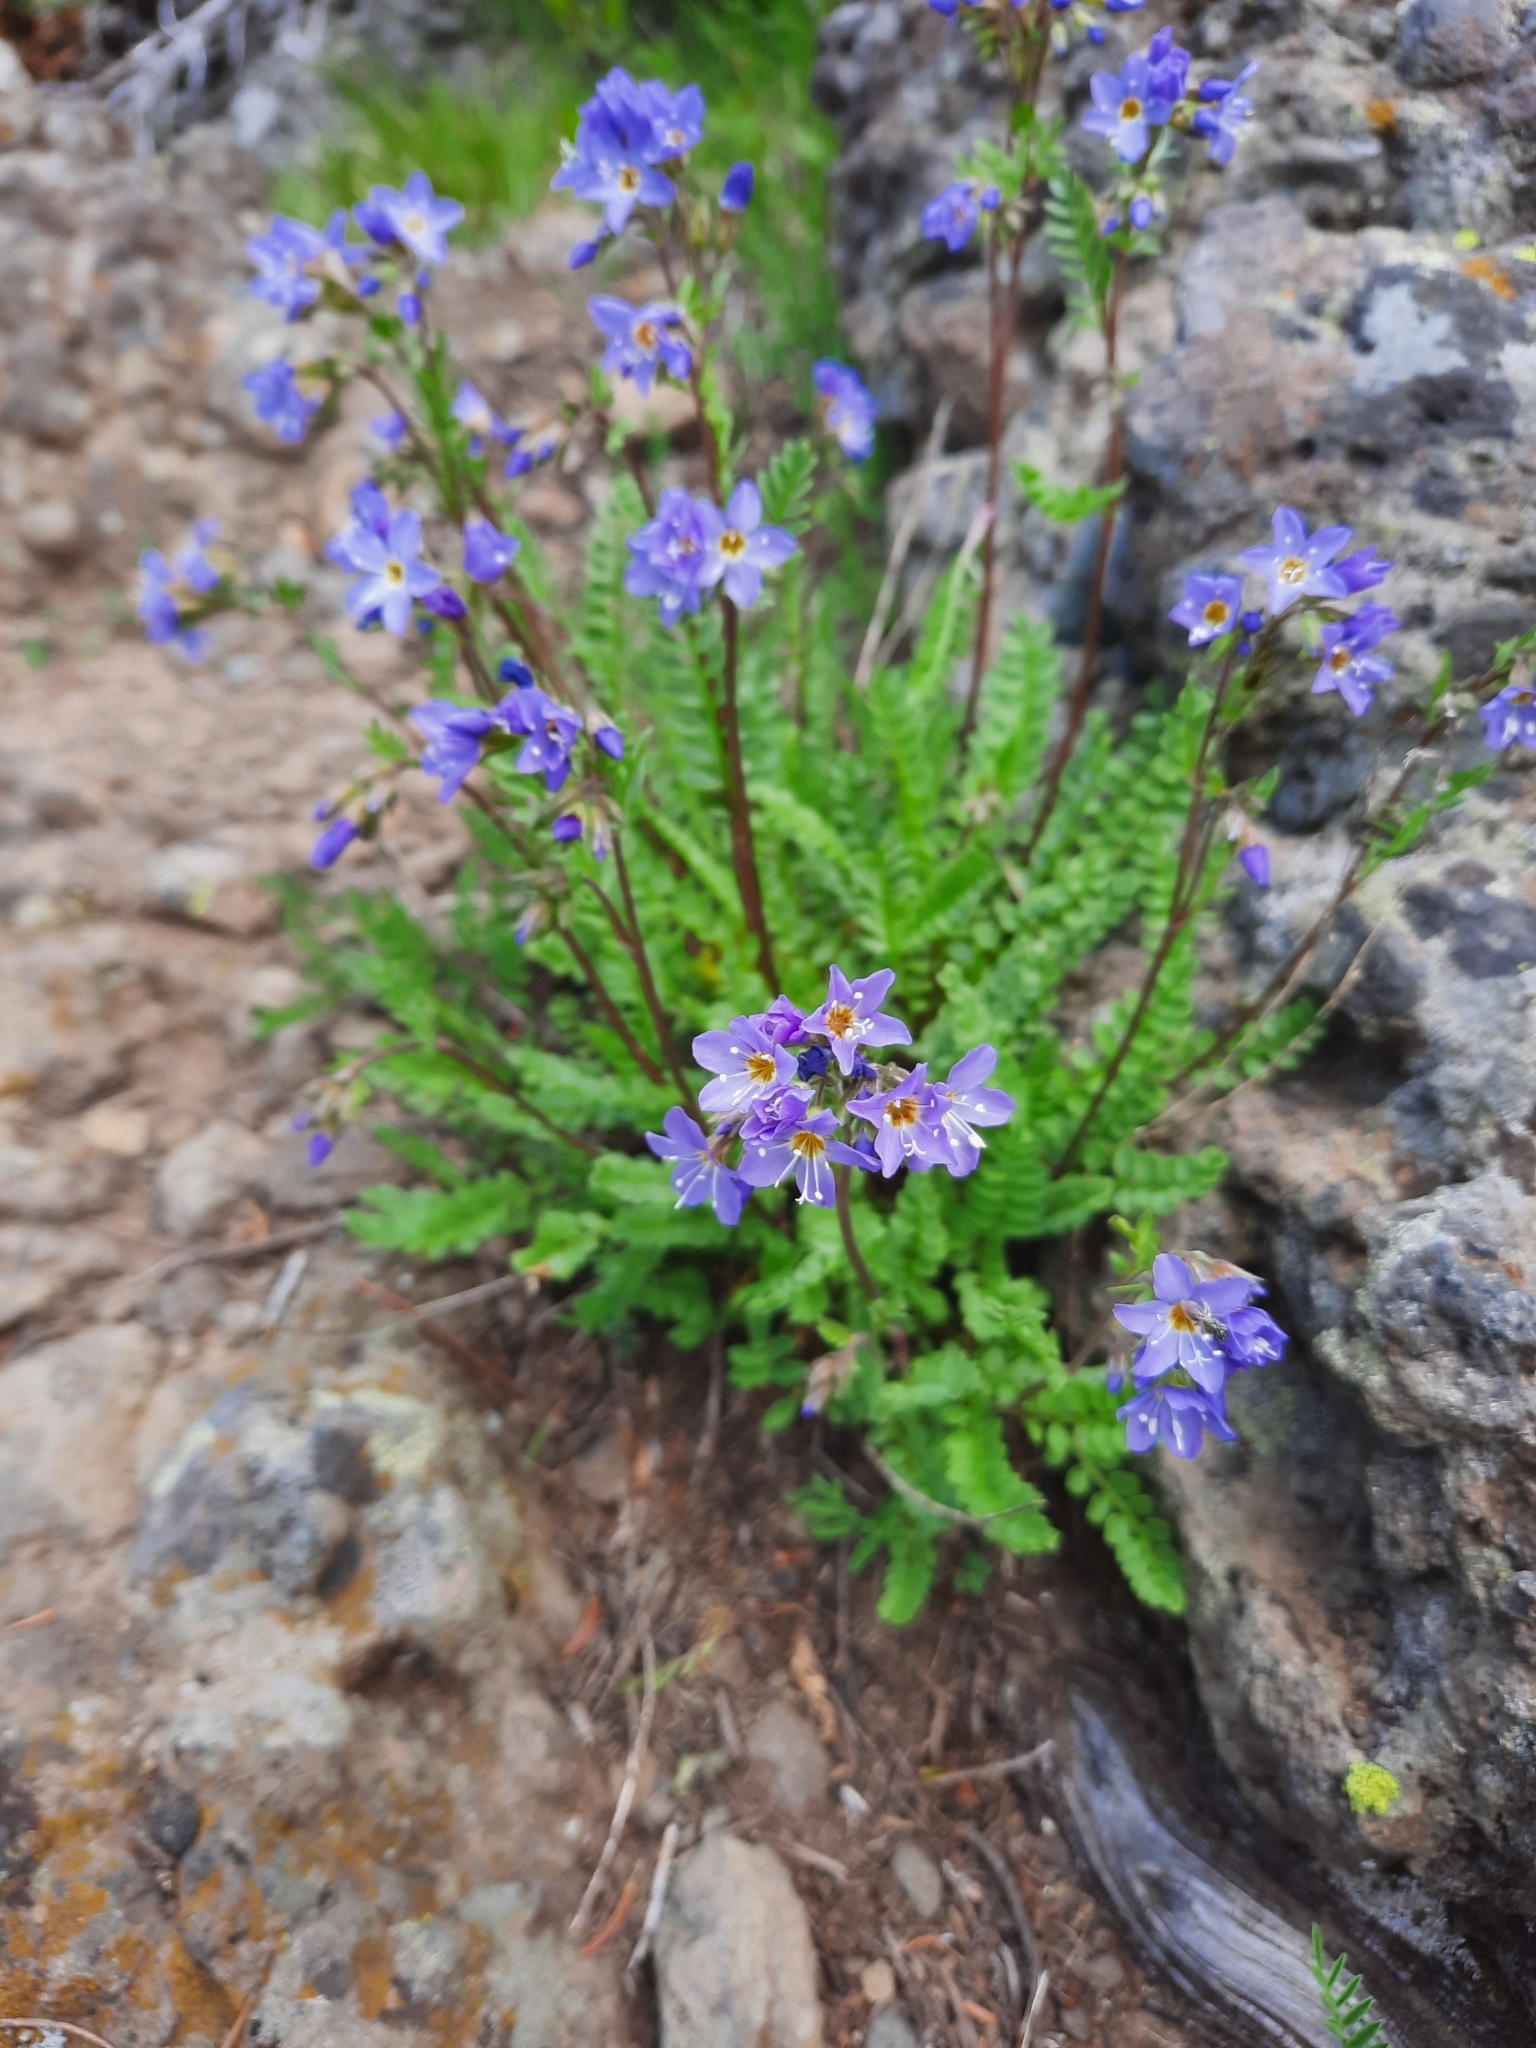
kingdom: Plantae
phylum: Tracheophyta
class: Magnoliopsida
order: Ericales
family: Polemoniaceae
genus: Polemonium
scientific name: Polemonium pulcherrimum
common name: Short jacob's-ladder
